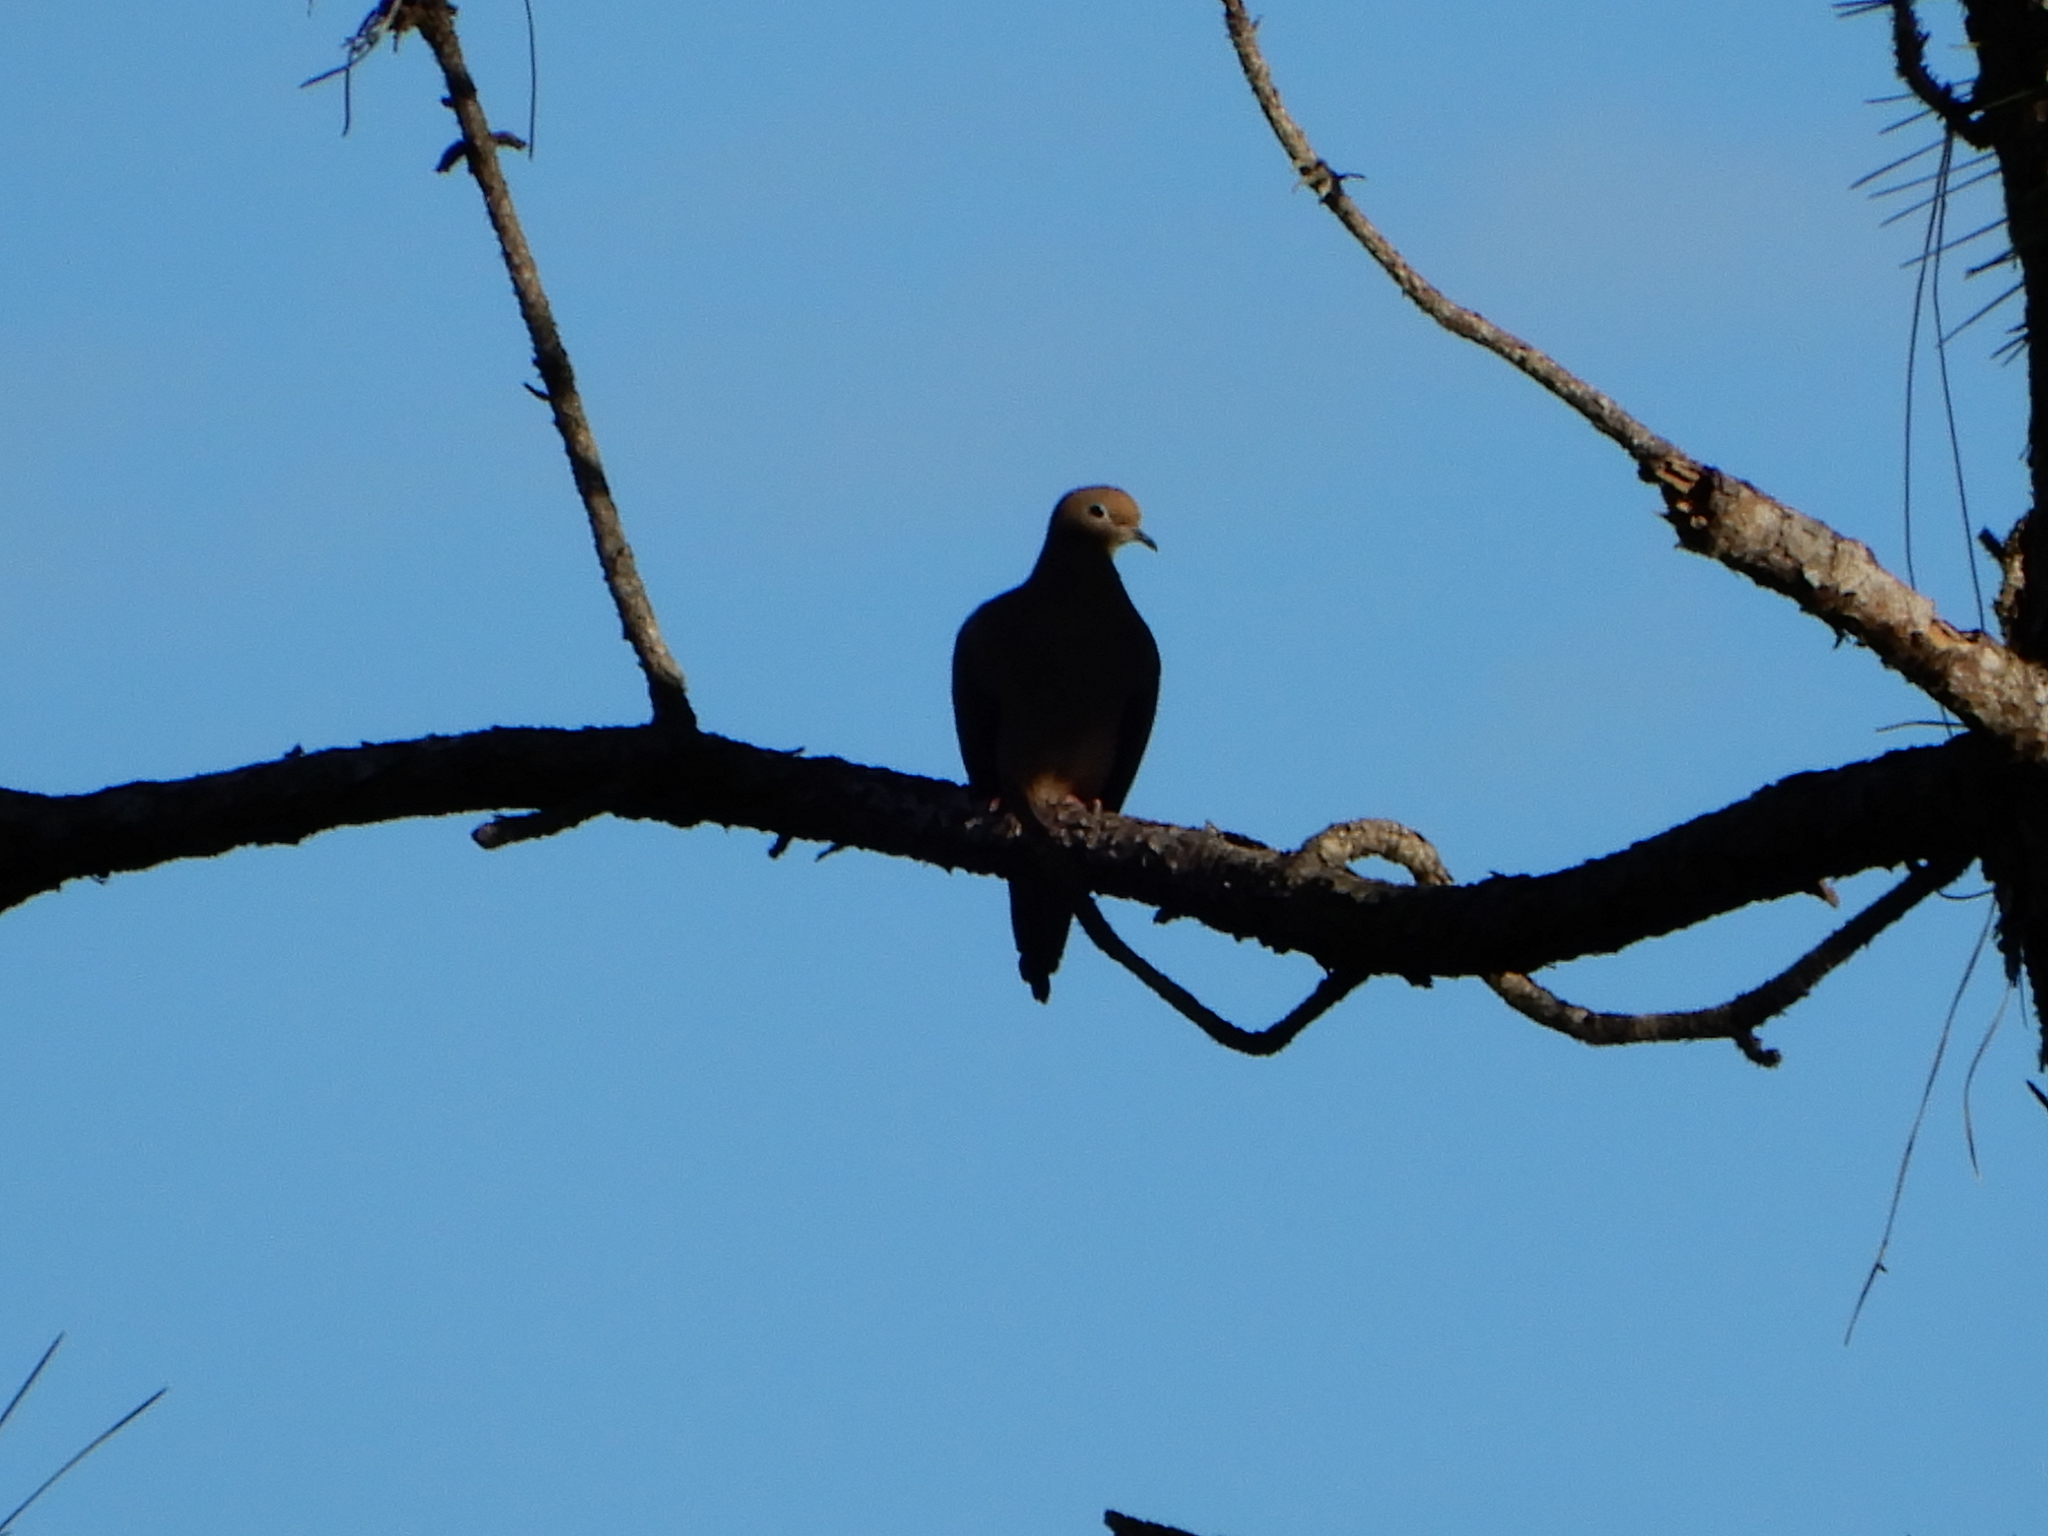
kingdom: Animalia
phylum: Chordata
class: Aves
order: Columbiformes
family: Columbidae
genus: Zenaida
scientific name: Zenaida macroura
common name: Mourning dove
